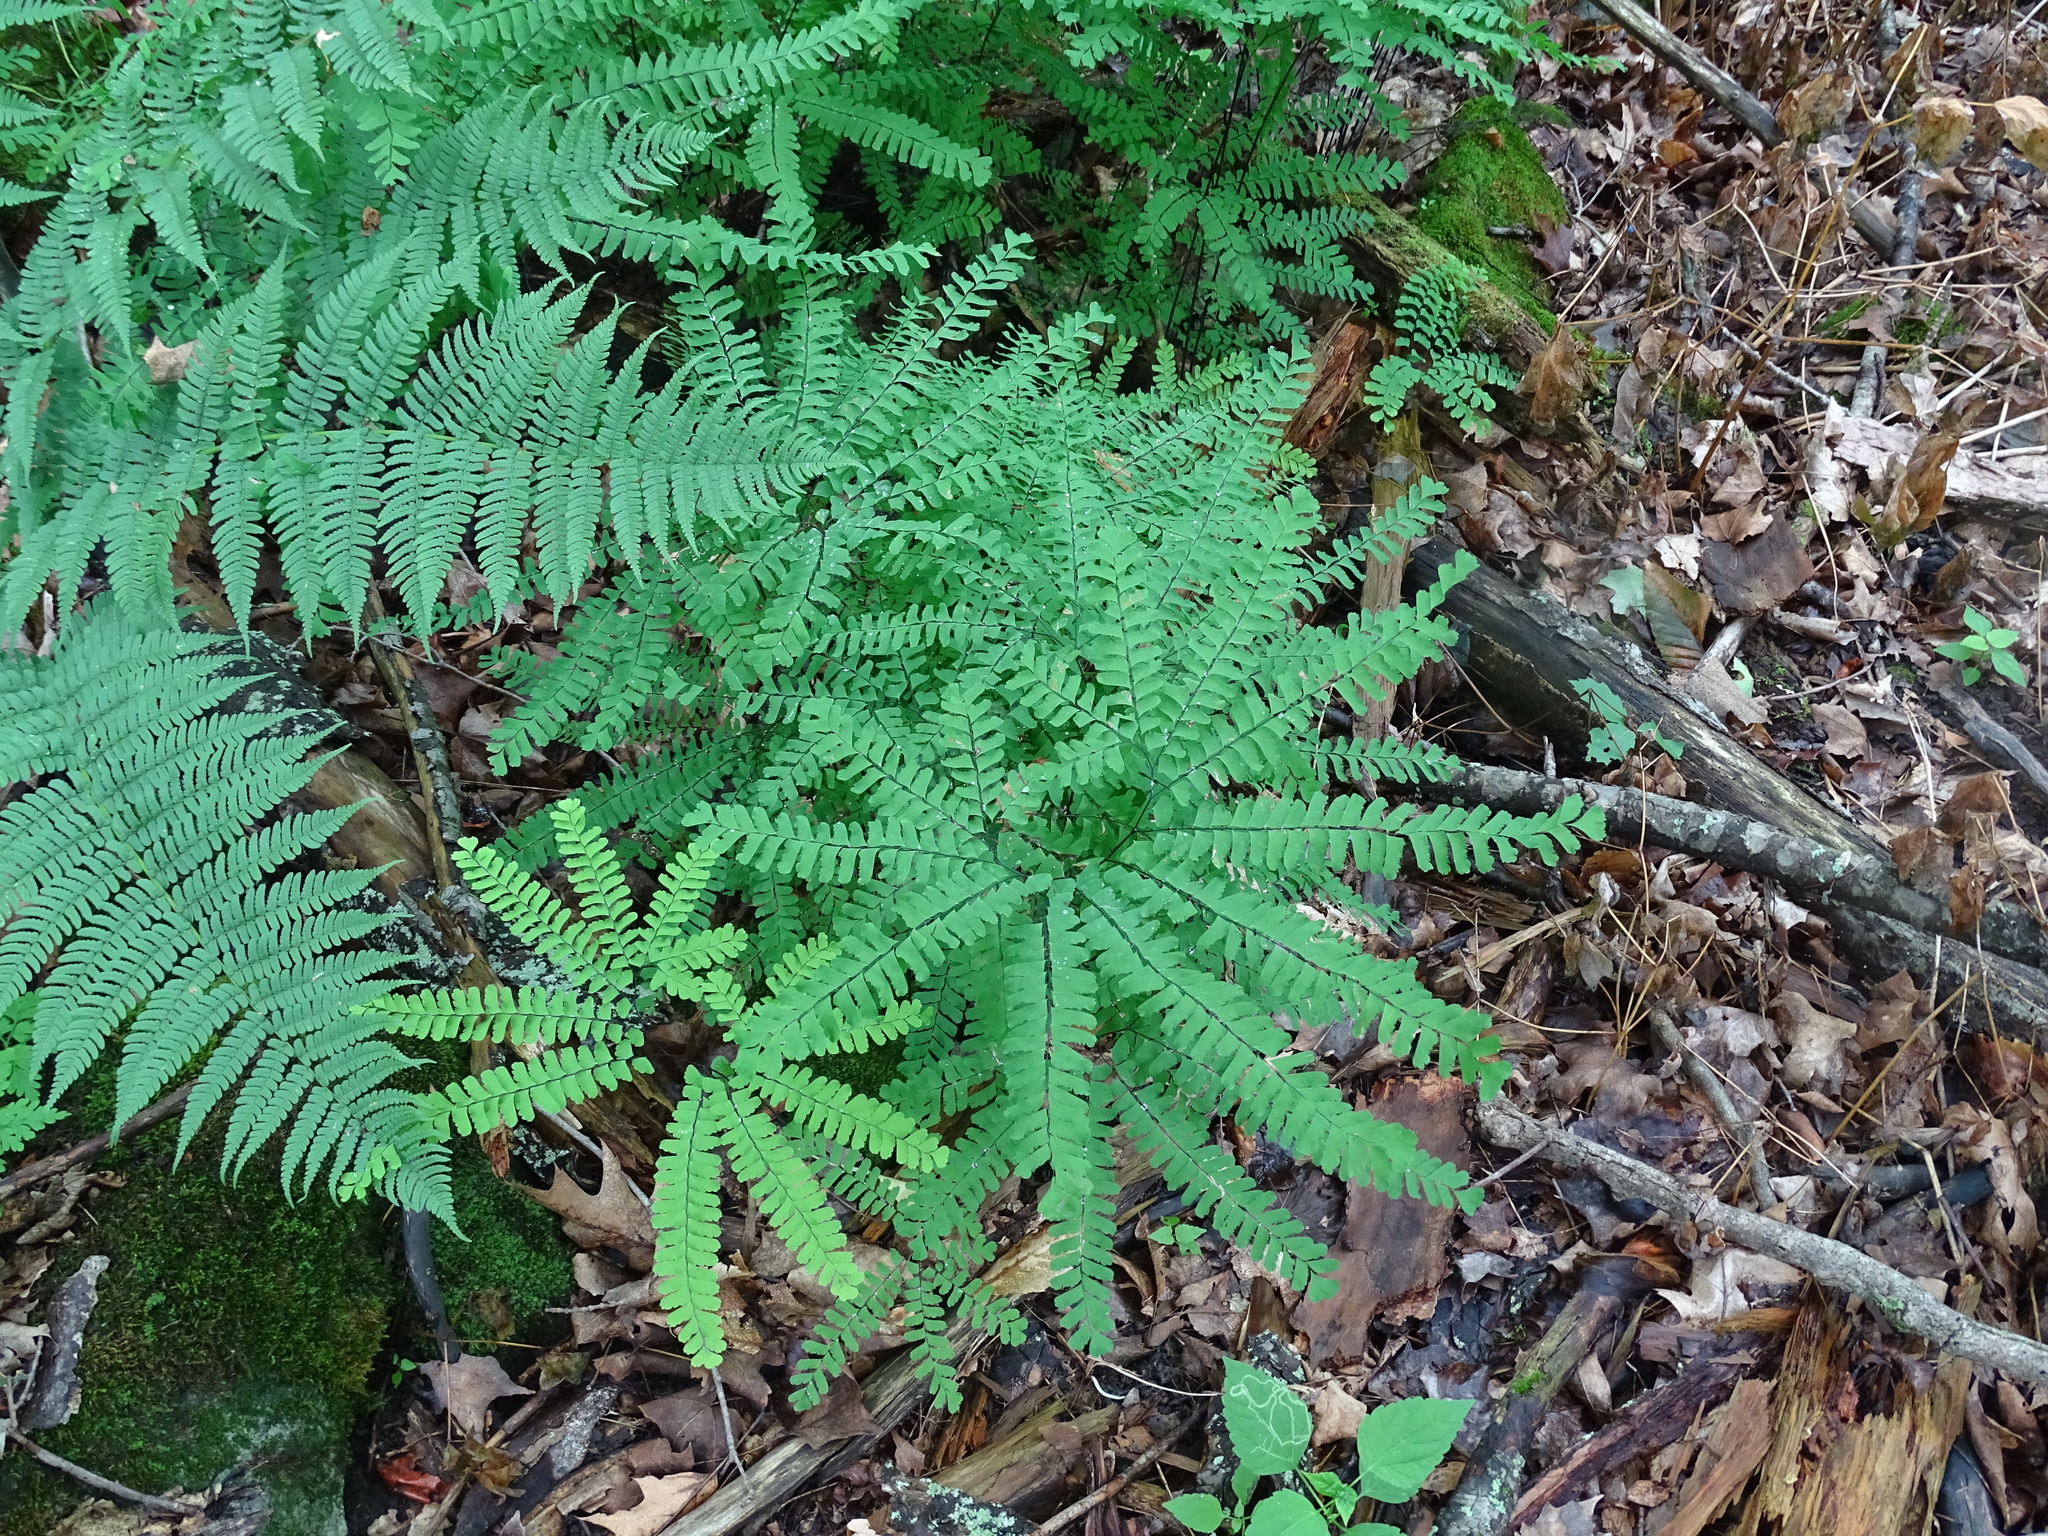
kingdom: Plantae
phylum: Tracheophyta
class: Polypodiopsida
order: Polypodiales
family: Pteridaceae
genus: Adiantum
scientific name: Adiantum pedatum
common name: Five-finger fern
